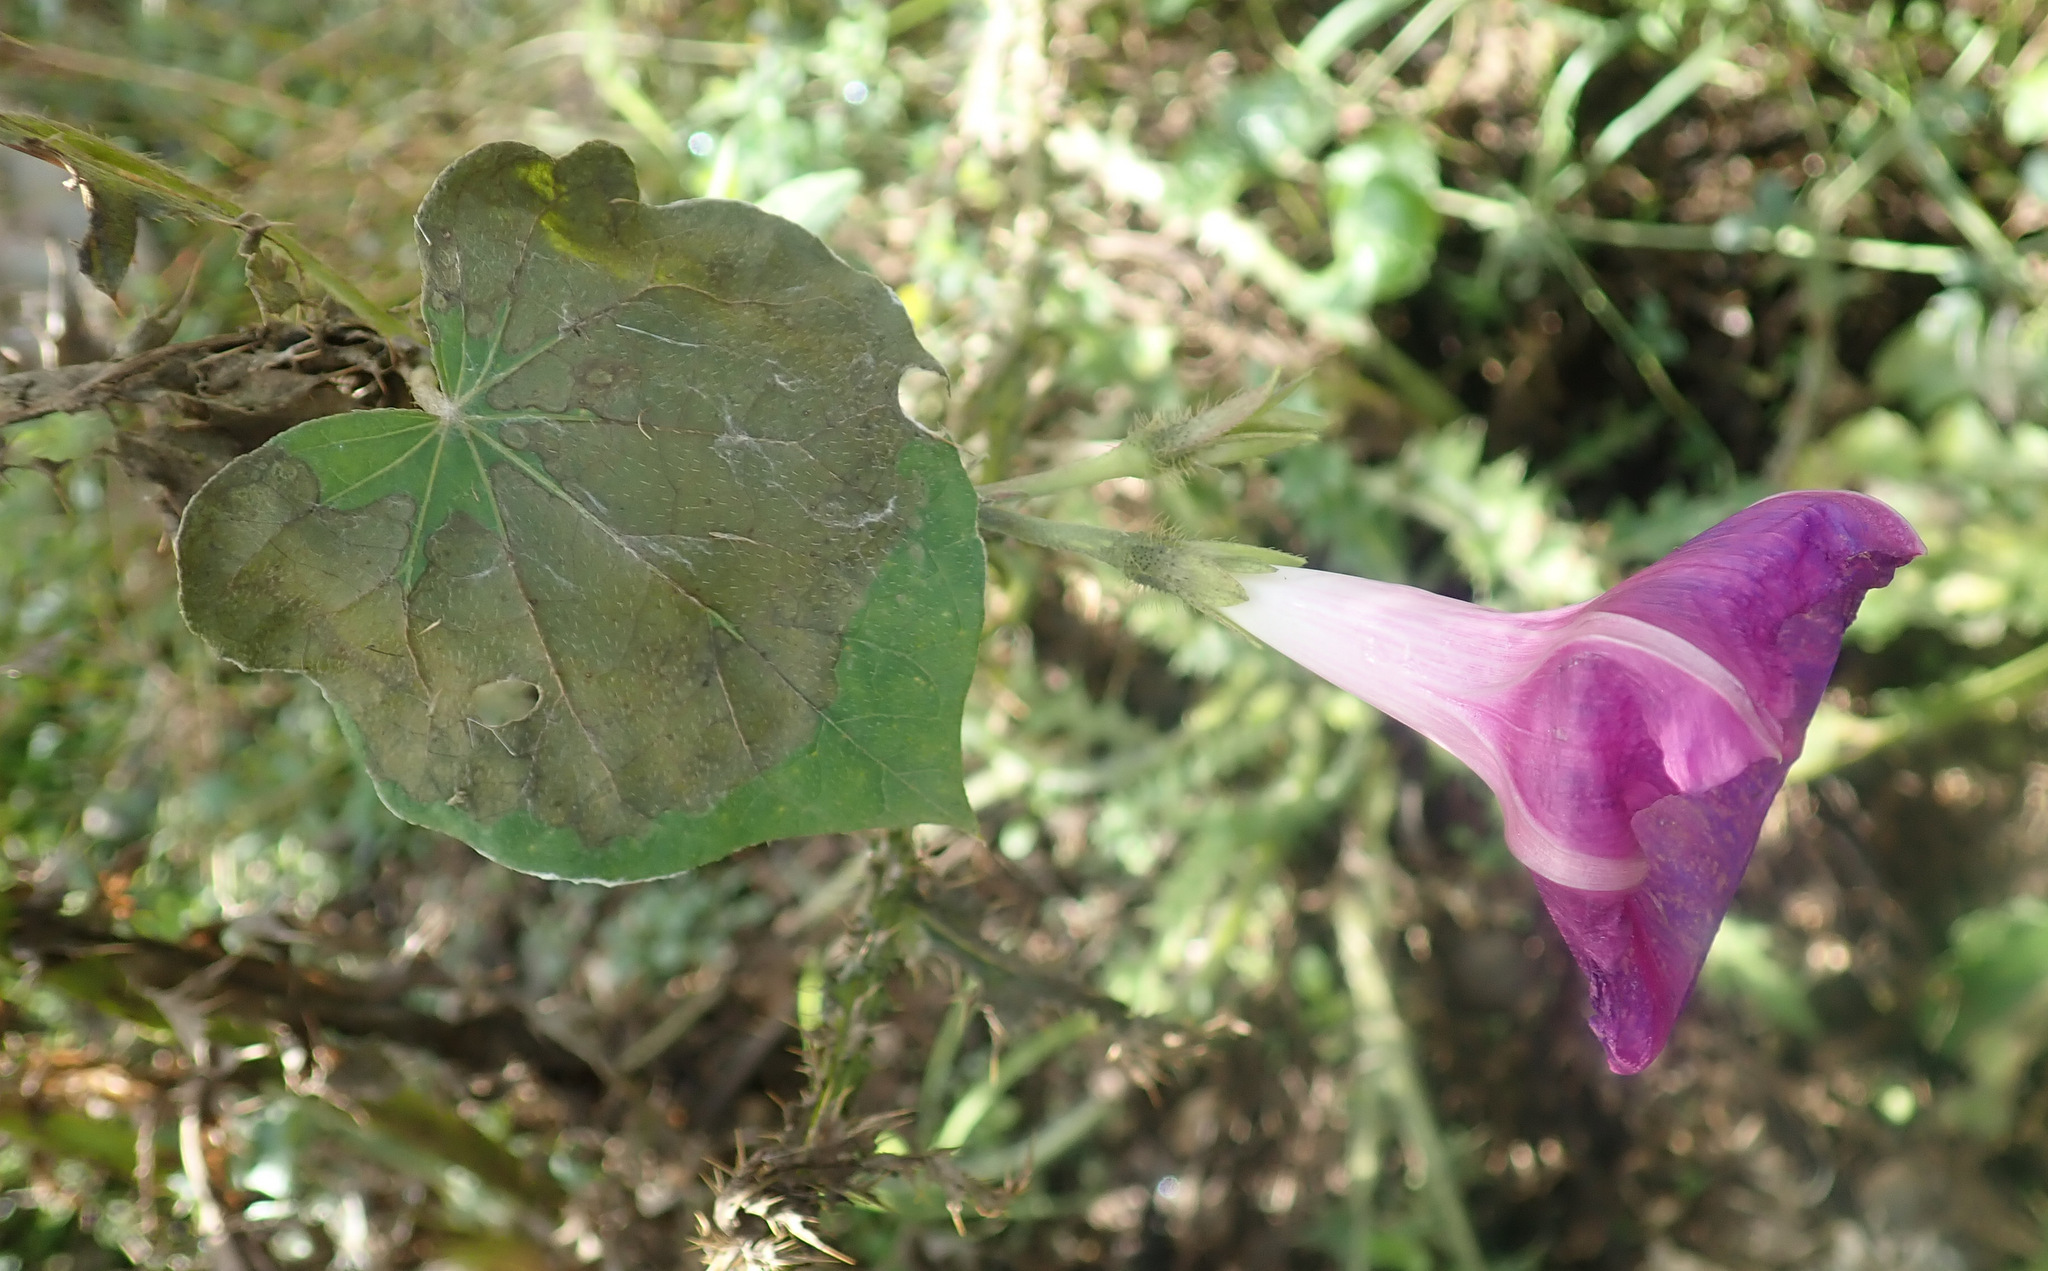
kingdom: Plantae
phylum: Tracheophyta
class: Magnoliopsida
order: Solanales
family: Convolvulaceae
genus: Ipomoea
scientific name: Ipomoea purpurea
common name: Common morning-glory
